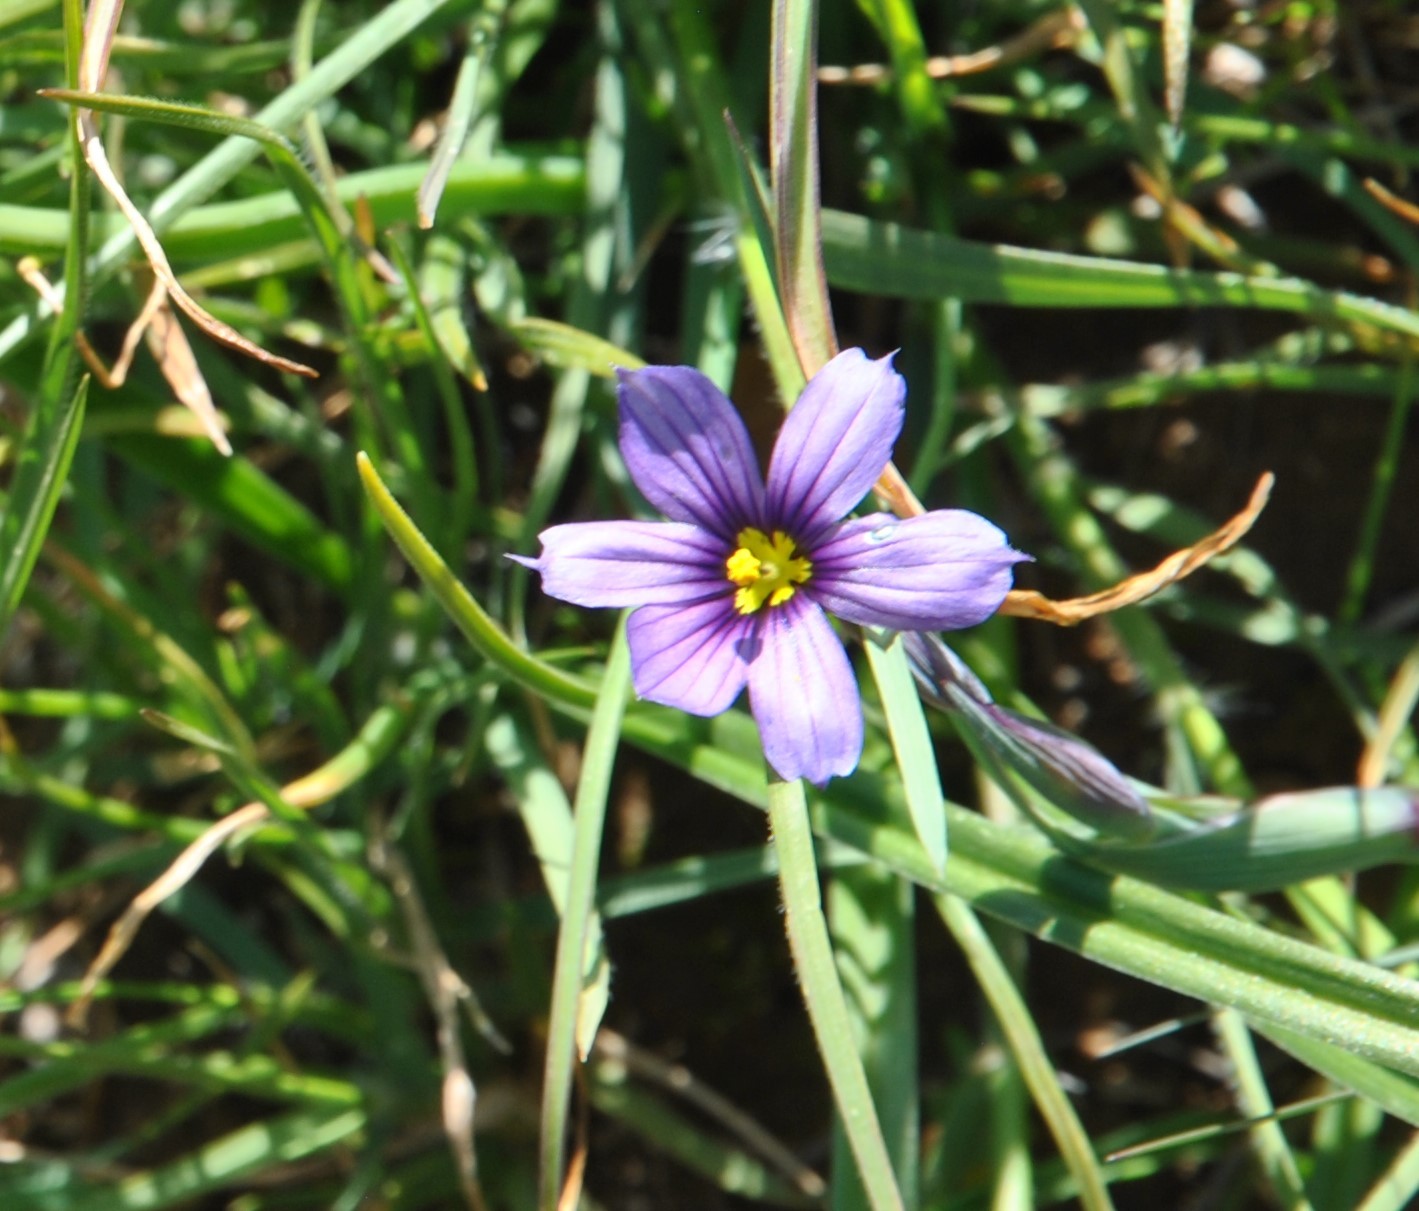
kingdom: Plantae
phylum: Tracheophyta
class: Liliopsida
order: Asparagales
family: Iridaceae
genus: Sisyrinchium
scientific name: Sisyrinchium bellum
